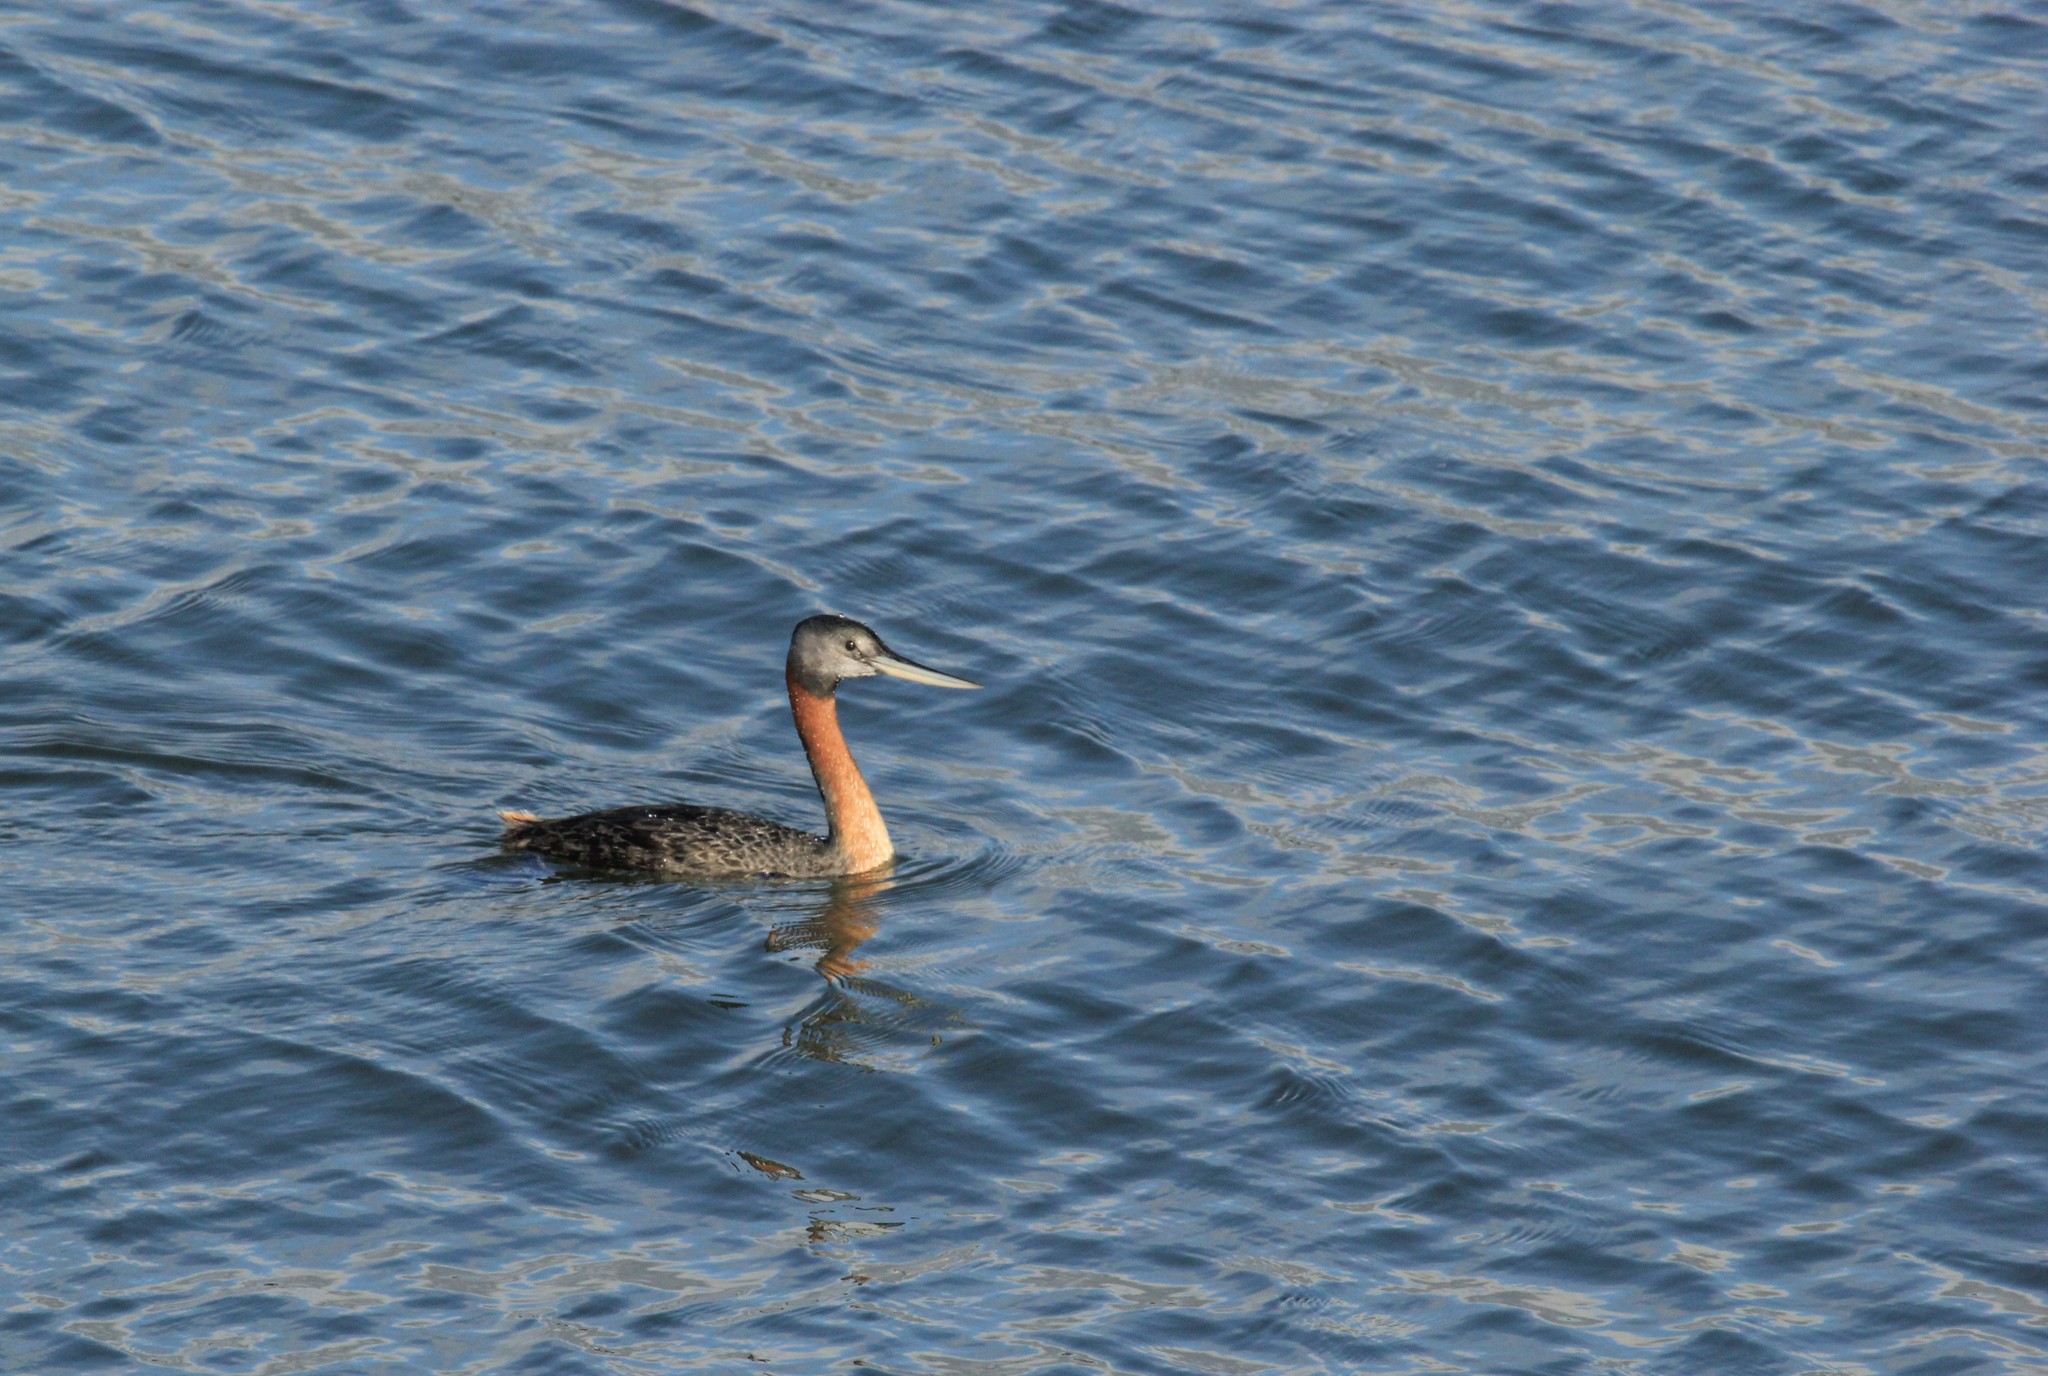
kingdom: Animalia
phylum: Chordata
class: Aves
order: Podicipediformes
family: Podicipedidae
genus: Podiceps
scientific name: Podiceps major
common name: Great grebe
